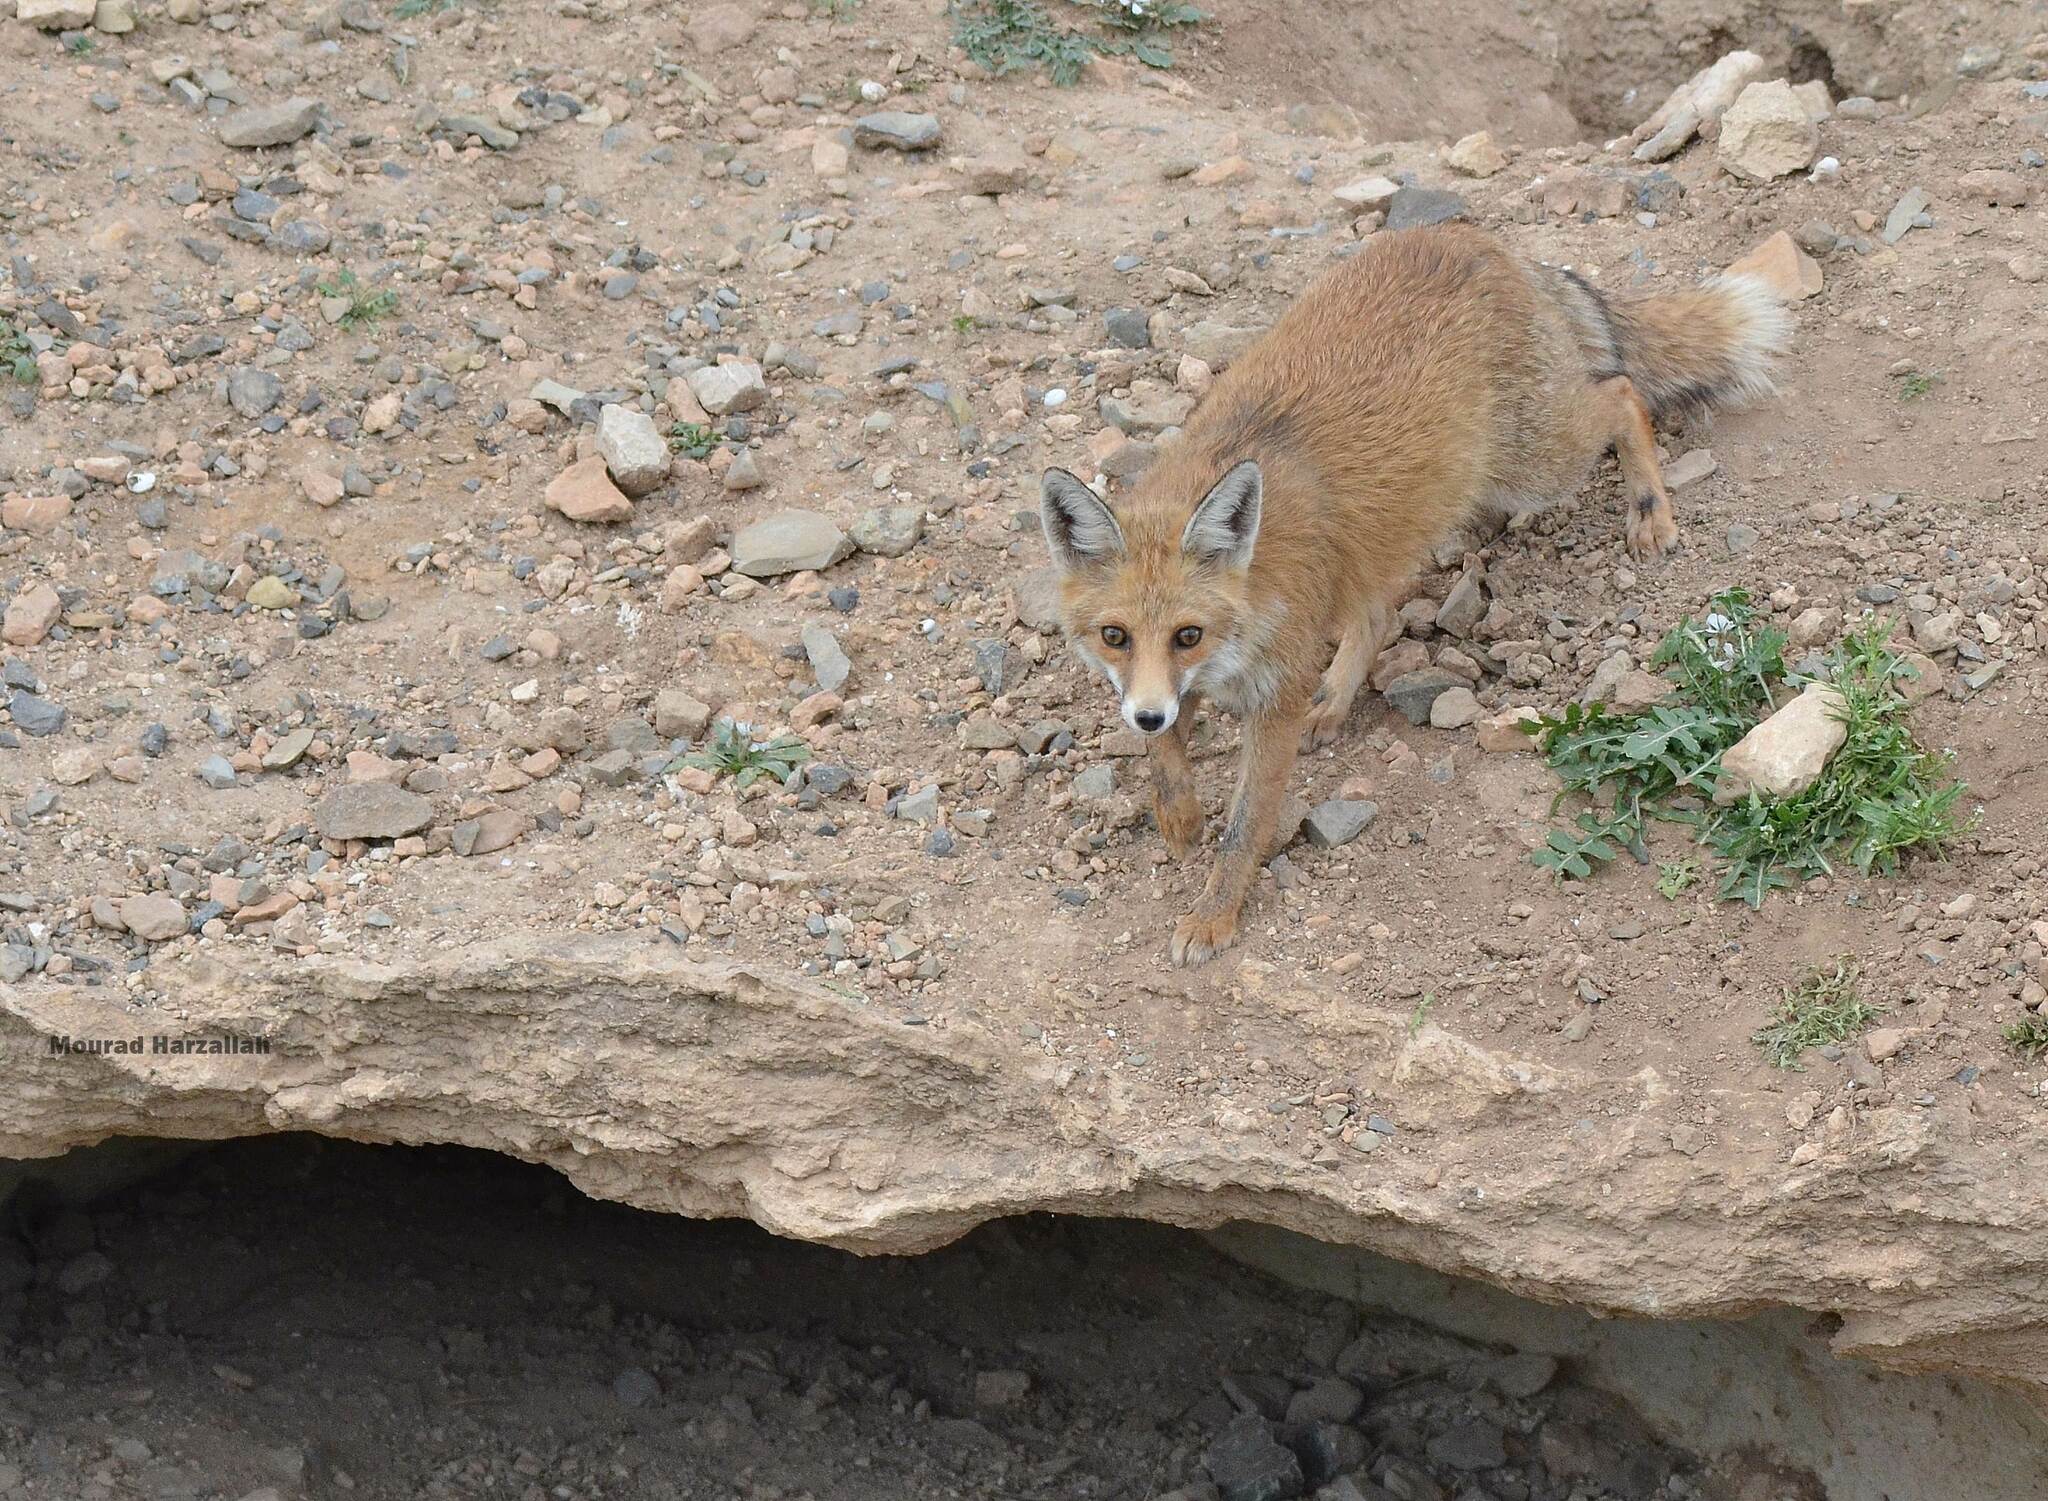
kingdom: Animalia
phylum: Chordata
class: Mammalia
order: Carnivora
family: Canidae
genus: Vulpes
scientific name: Vulpes vulpes
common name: Red fox
